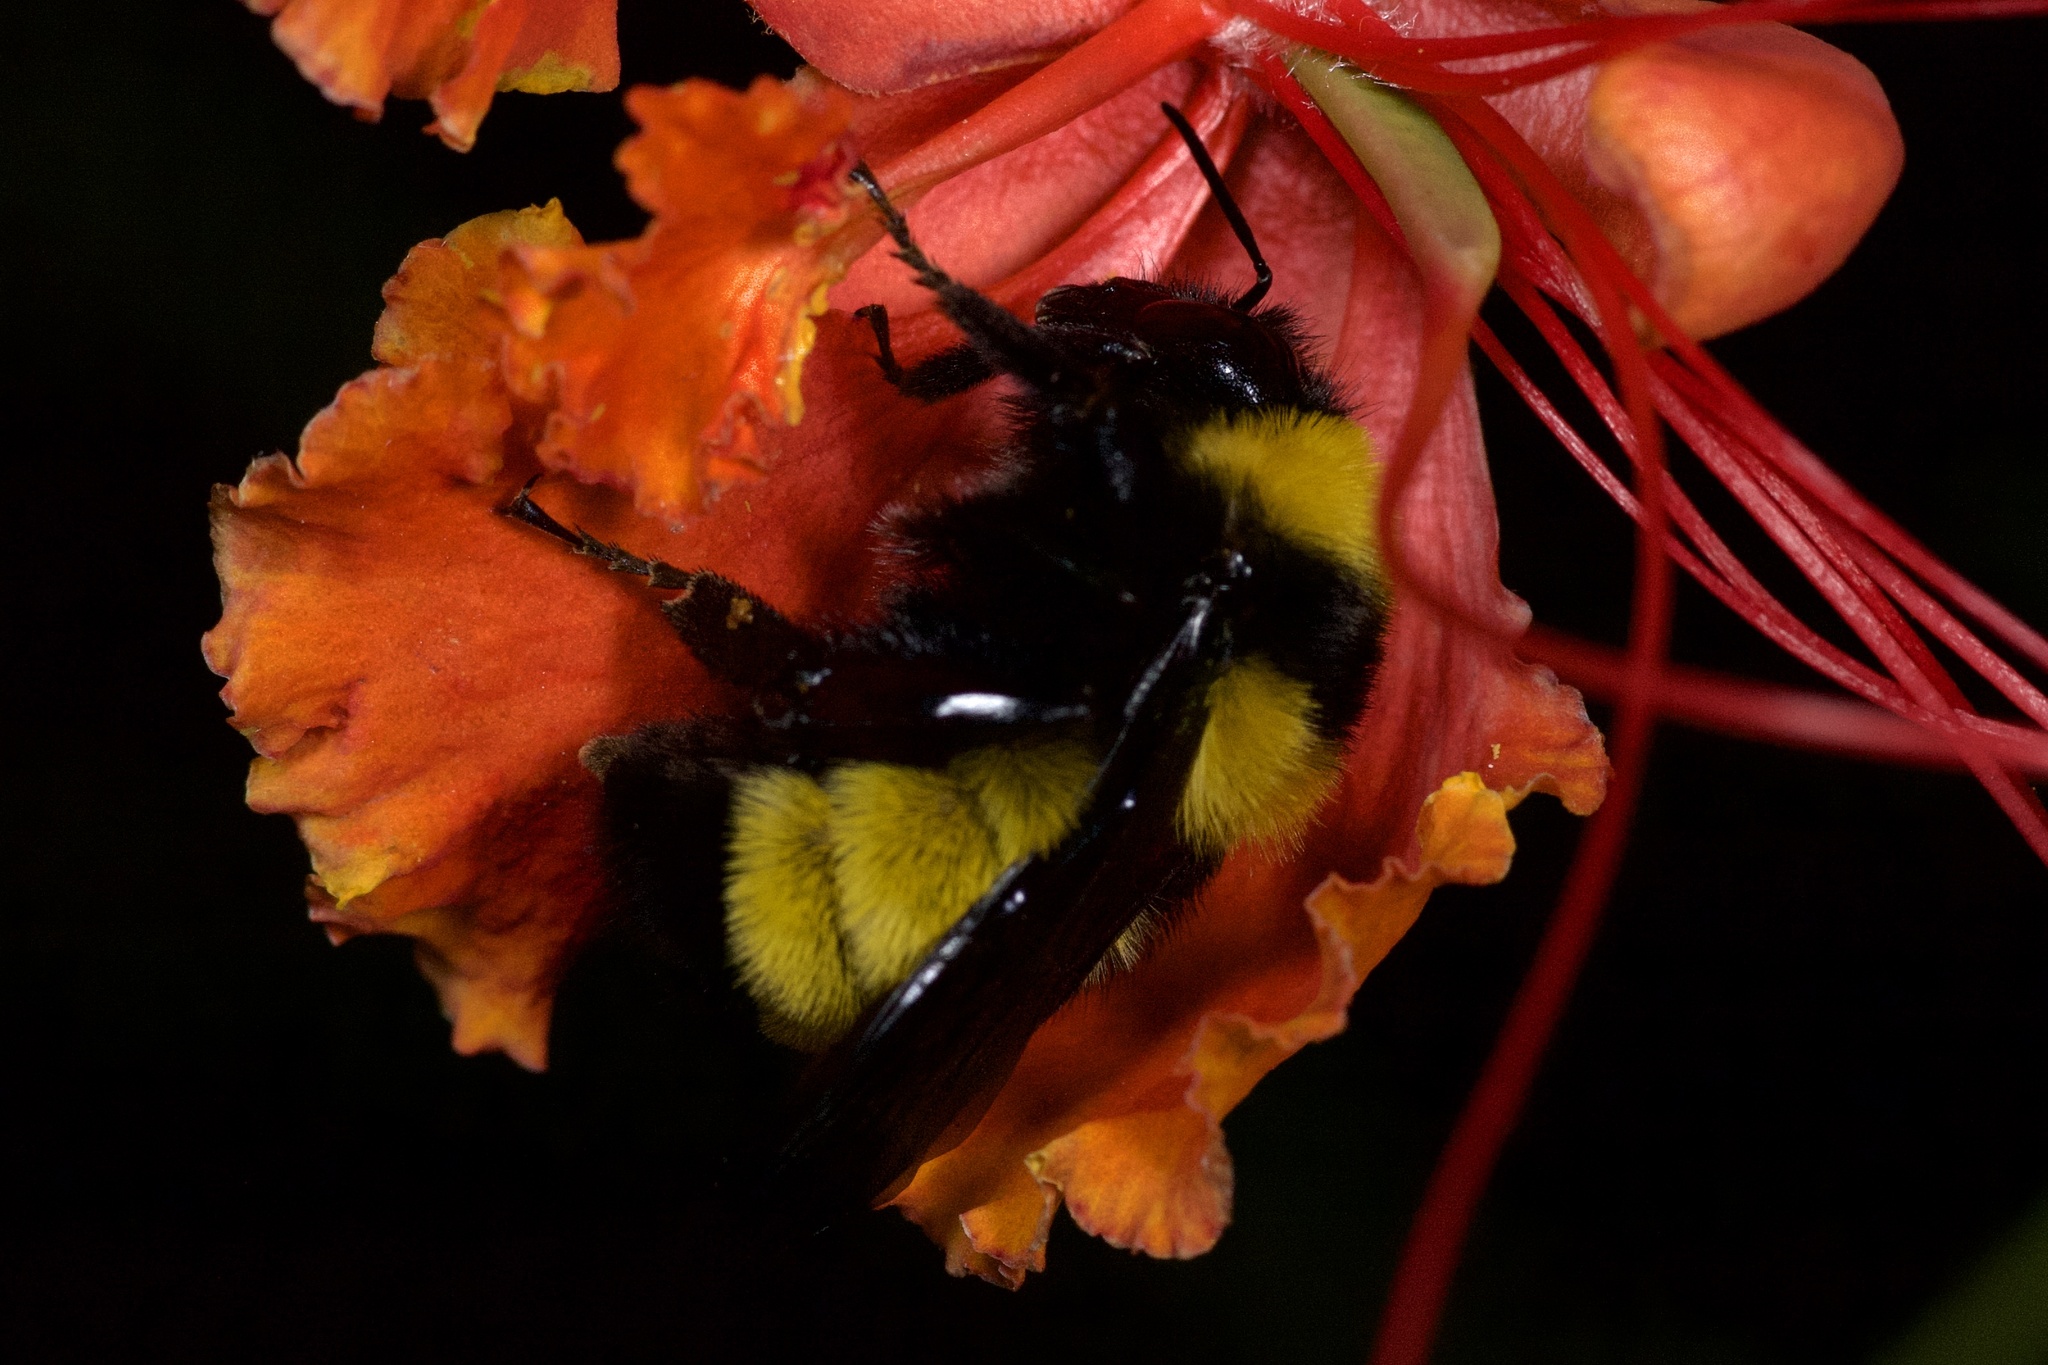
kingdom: Animalia
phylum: Arthropoda
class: Insecta
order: Hymenoptera
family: Apidae
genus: Bombus
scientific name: Bombus sonorus
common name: Sonoran bumble bee
